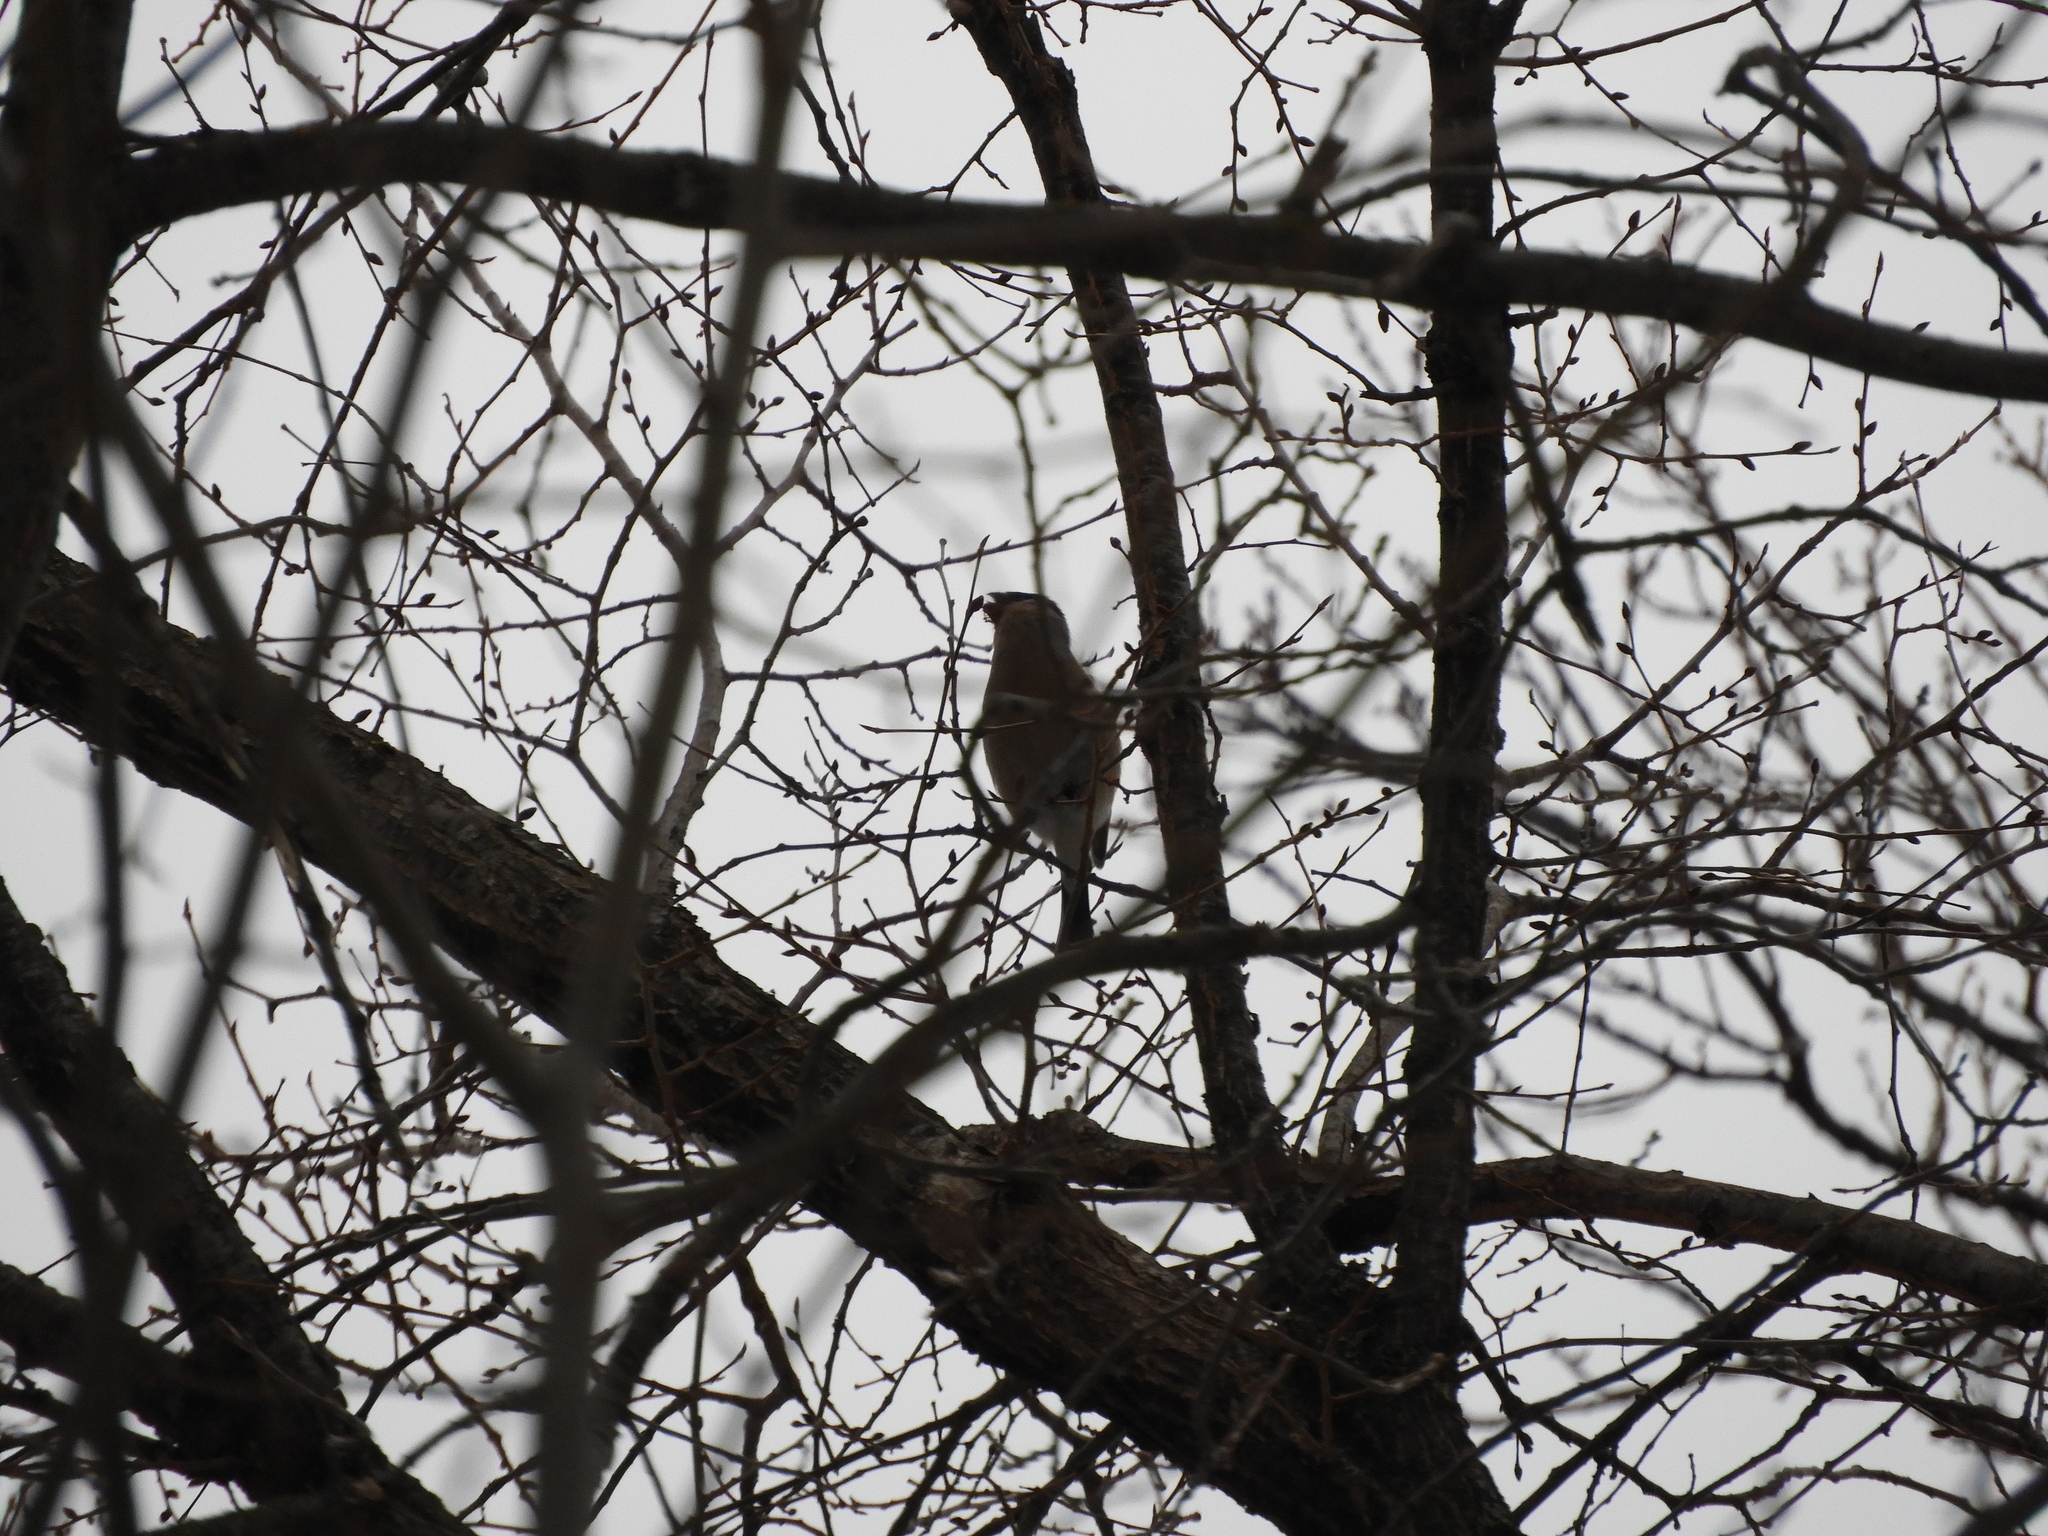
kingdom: Animalia
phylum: Chordata
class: Aves
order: Passeriformes
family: Fringillidae
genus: Pyrrhula
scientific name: Pyrrhula pyrrhula
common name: Eurasian bullfinch
